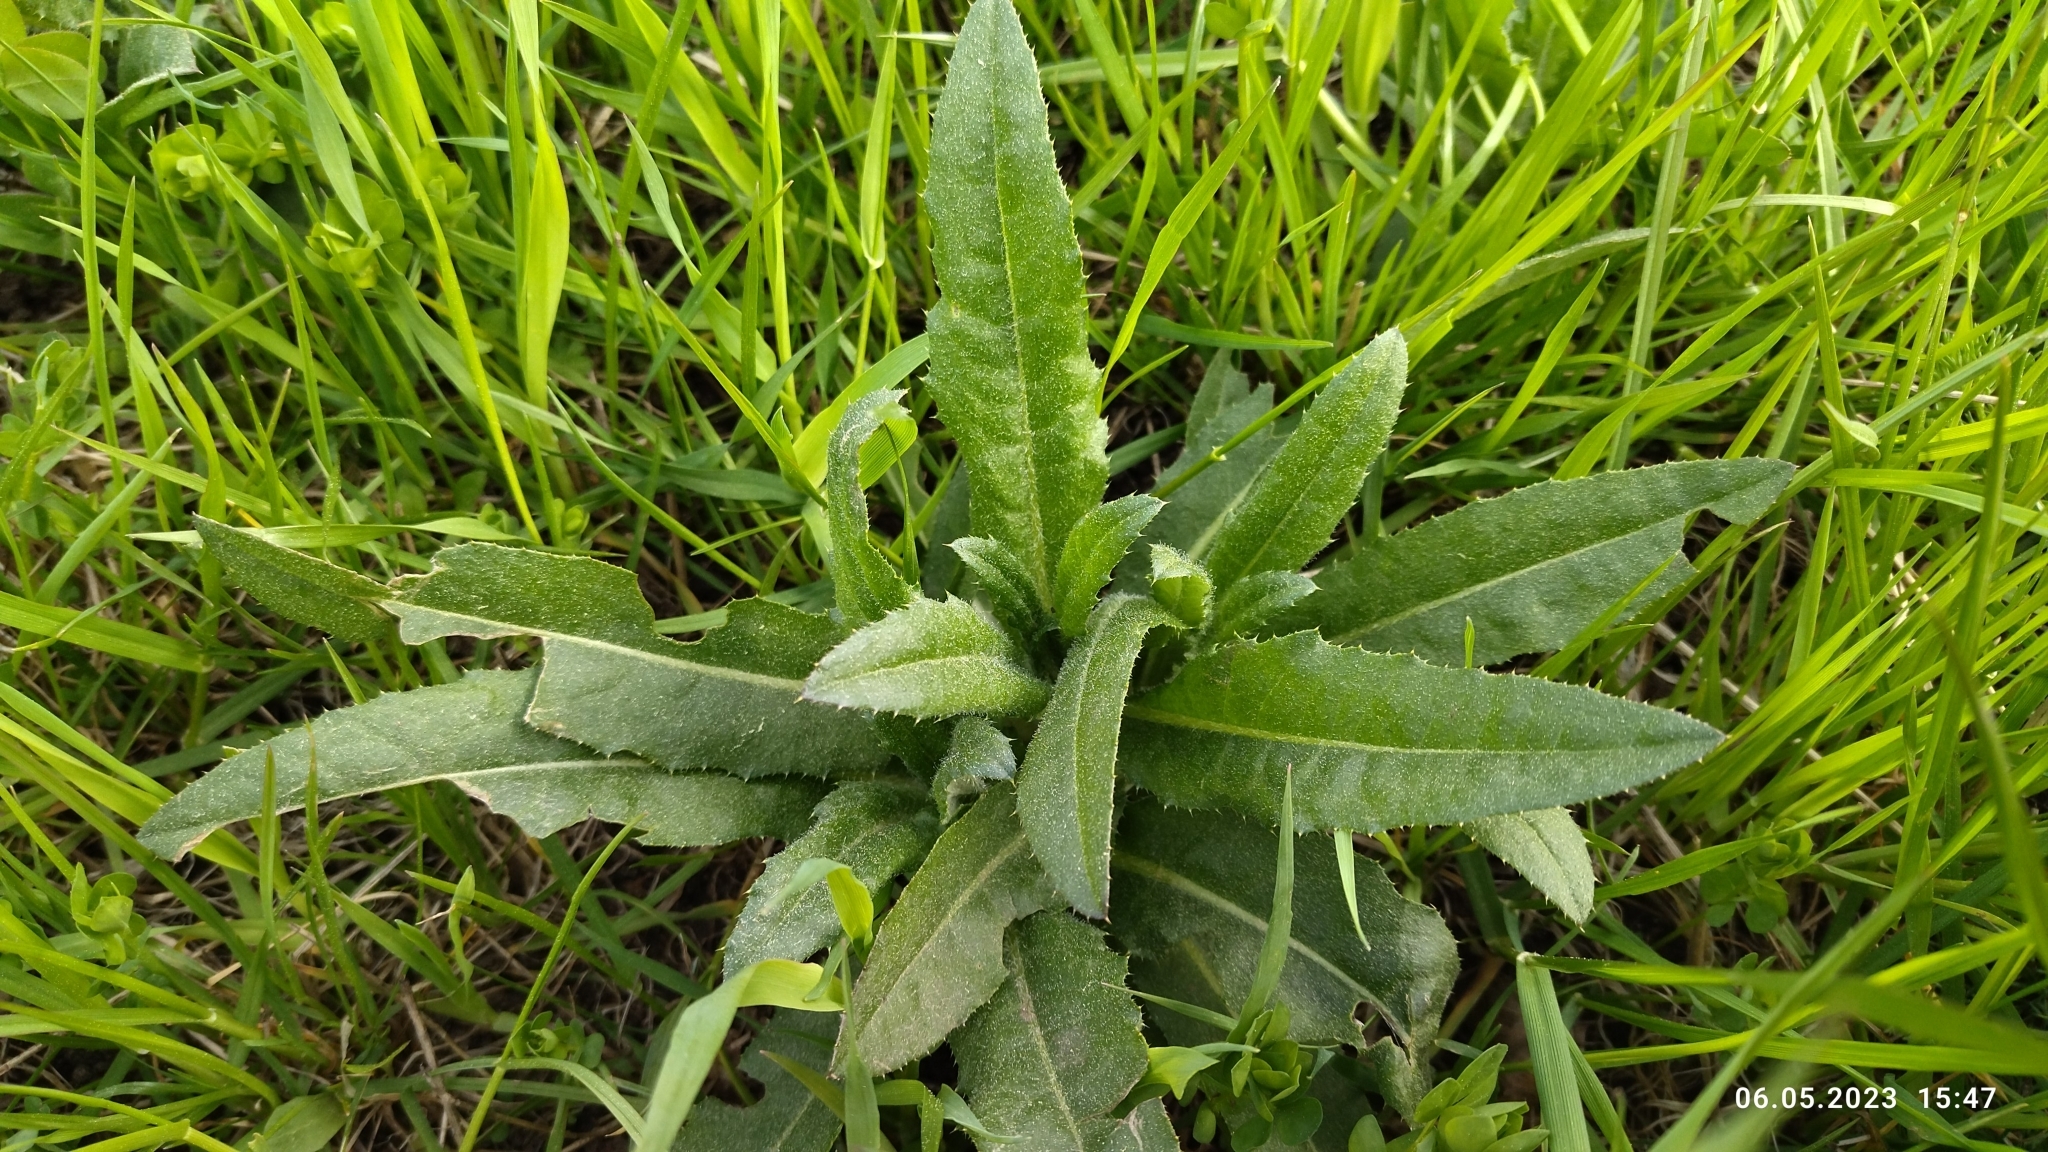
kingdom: Plantae
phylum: Tracheophyta
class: Magnoliopsida
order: Asterales
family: Asteraceae
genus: Cirsium
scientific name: Cirsium arvense
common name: Creeping thistle
